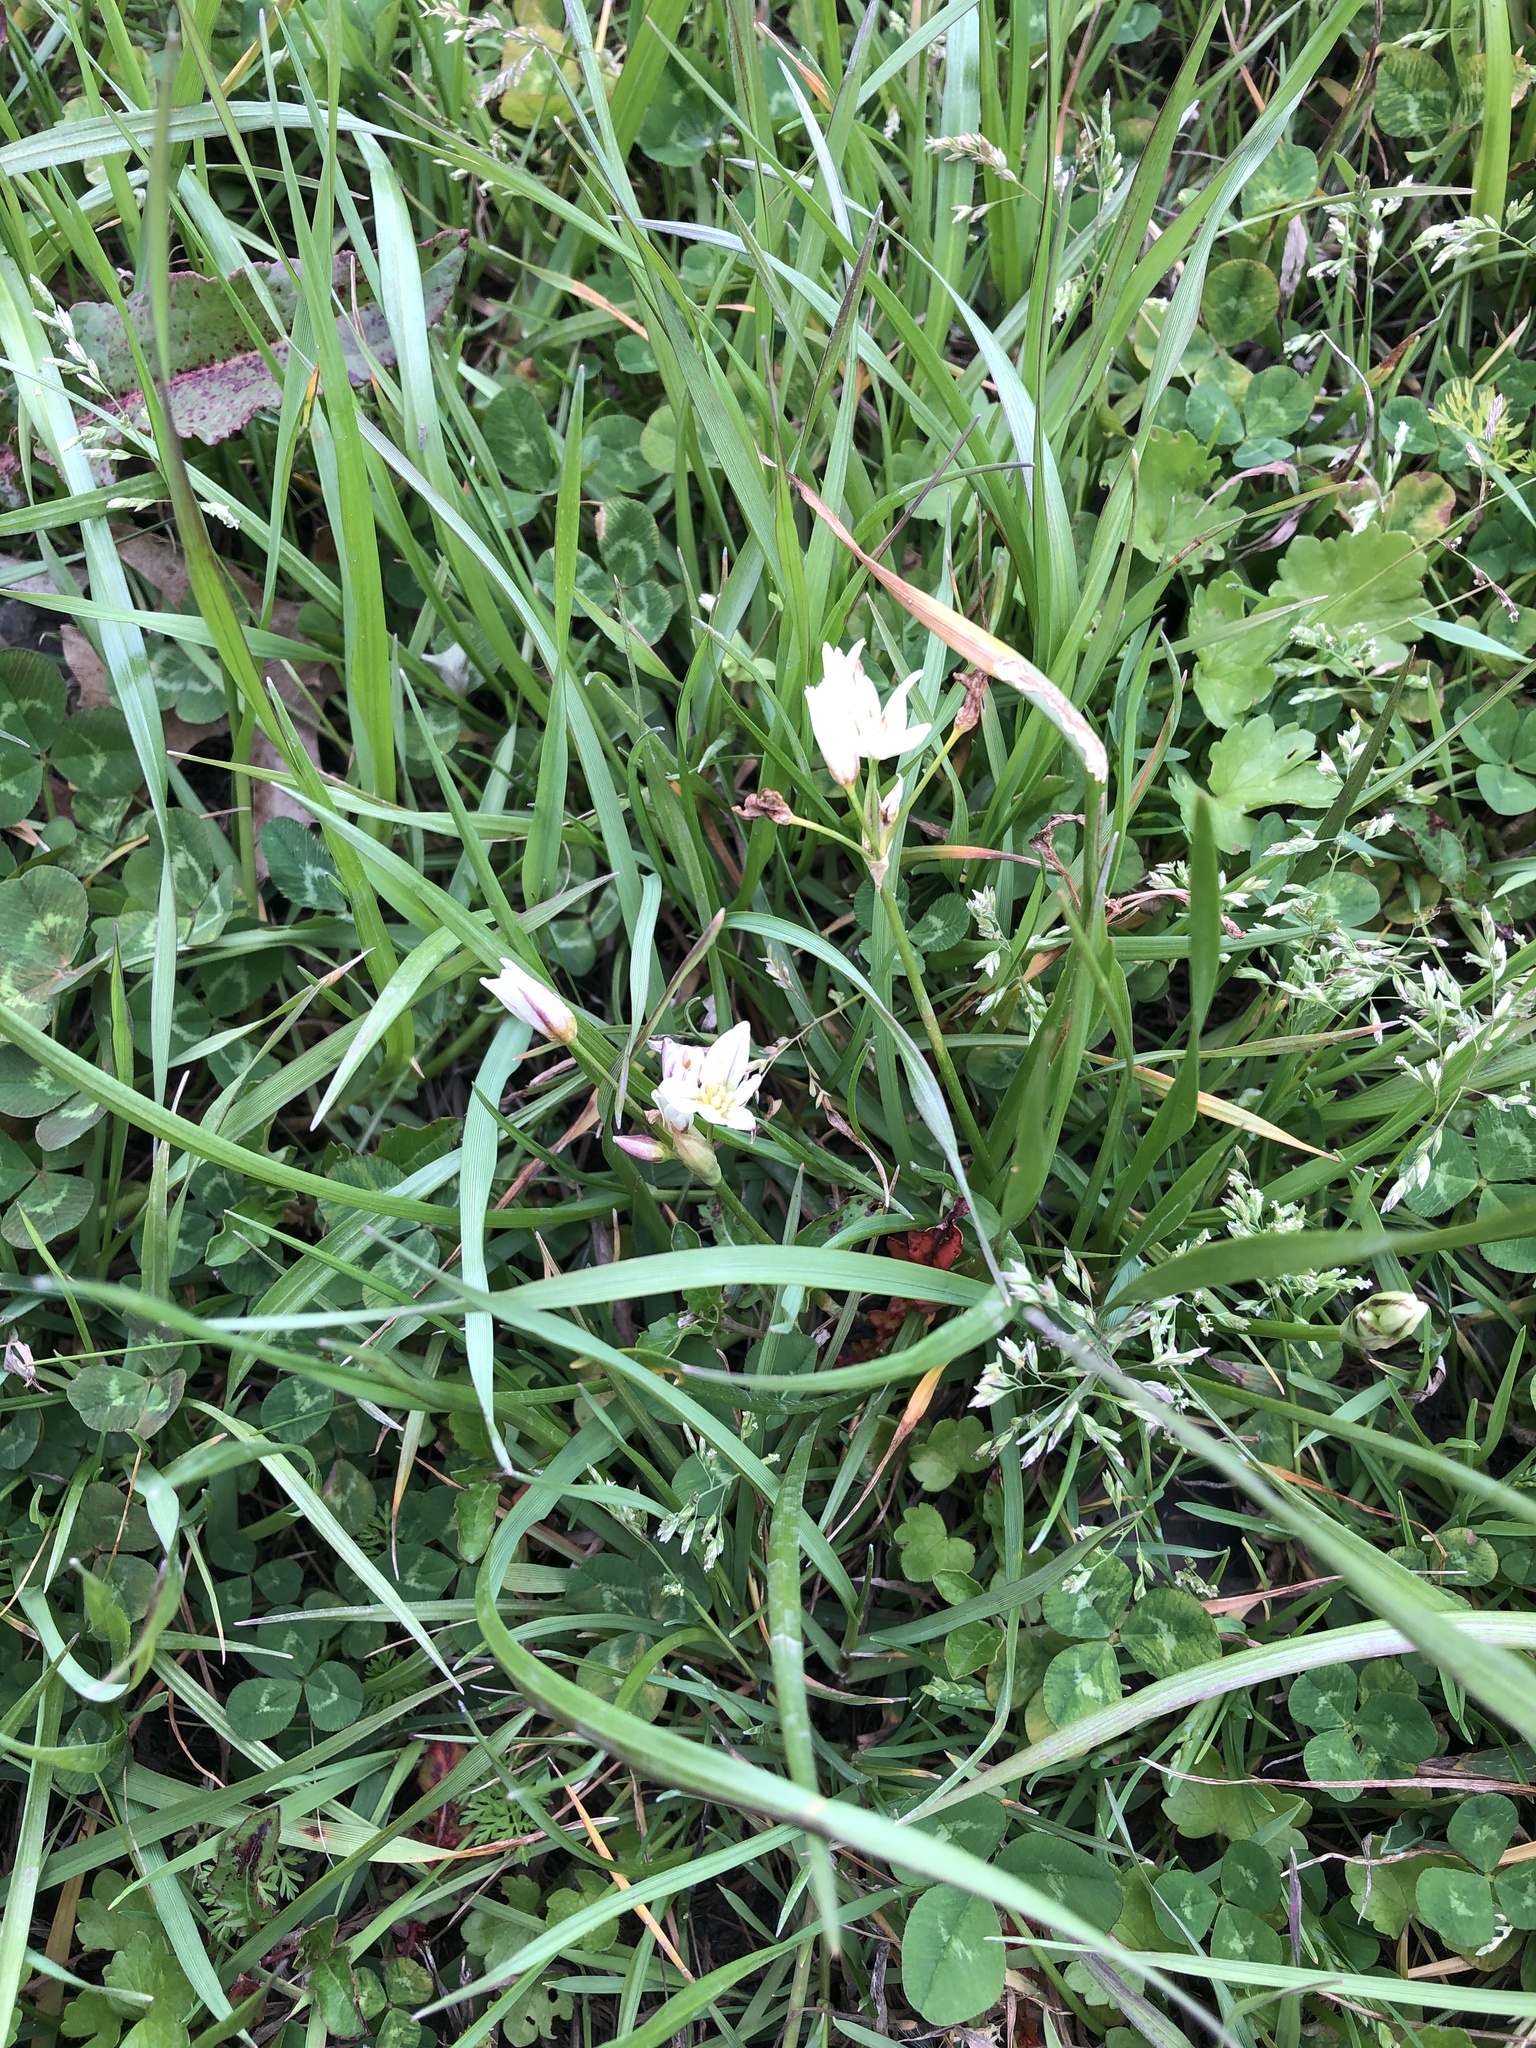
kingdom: Plantae
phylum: Tracheophyta
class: Liliopsida
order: Asparagales
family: Amaryllidaceae
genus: Nothoscordum
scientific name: Nothoscordum bivalve
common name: Crow-poison
